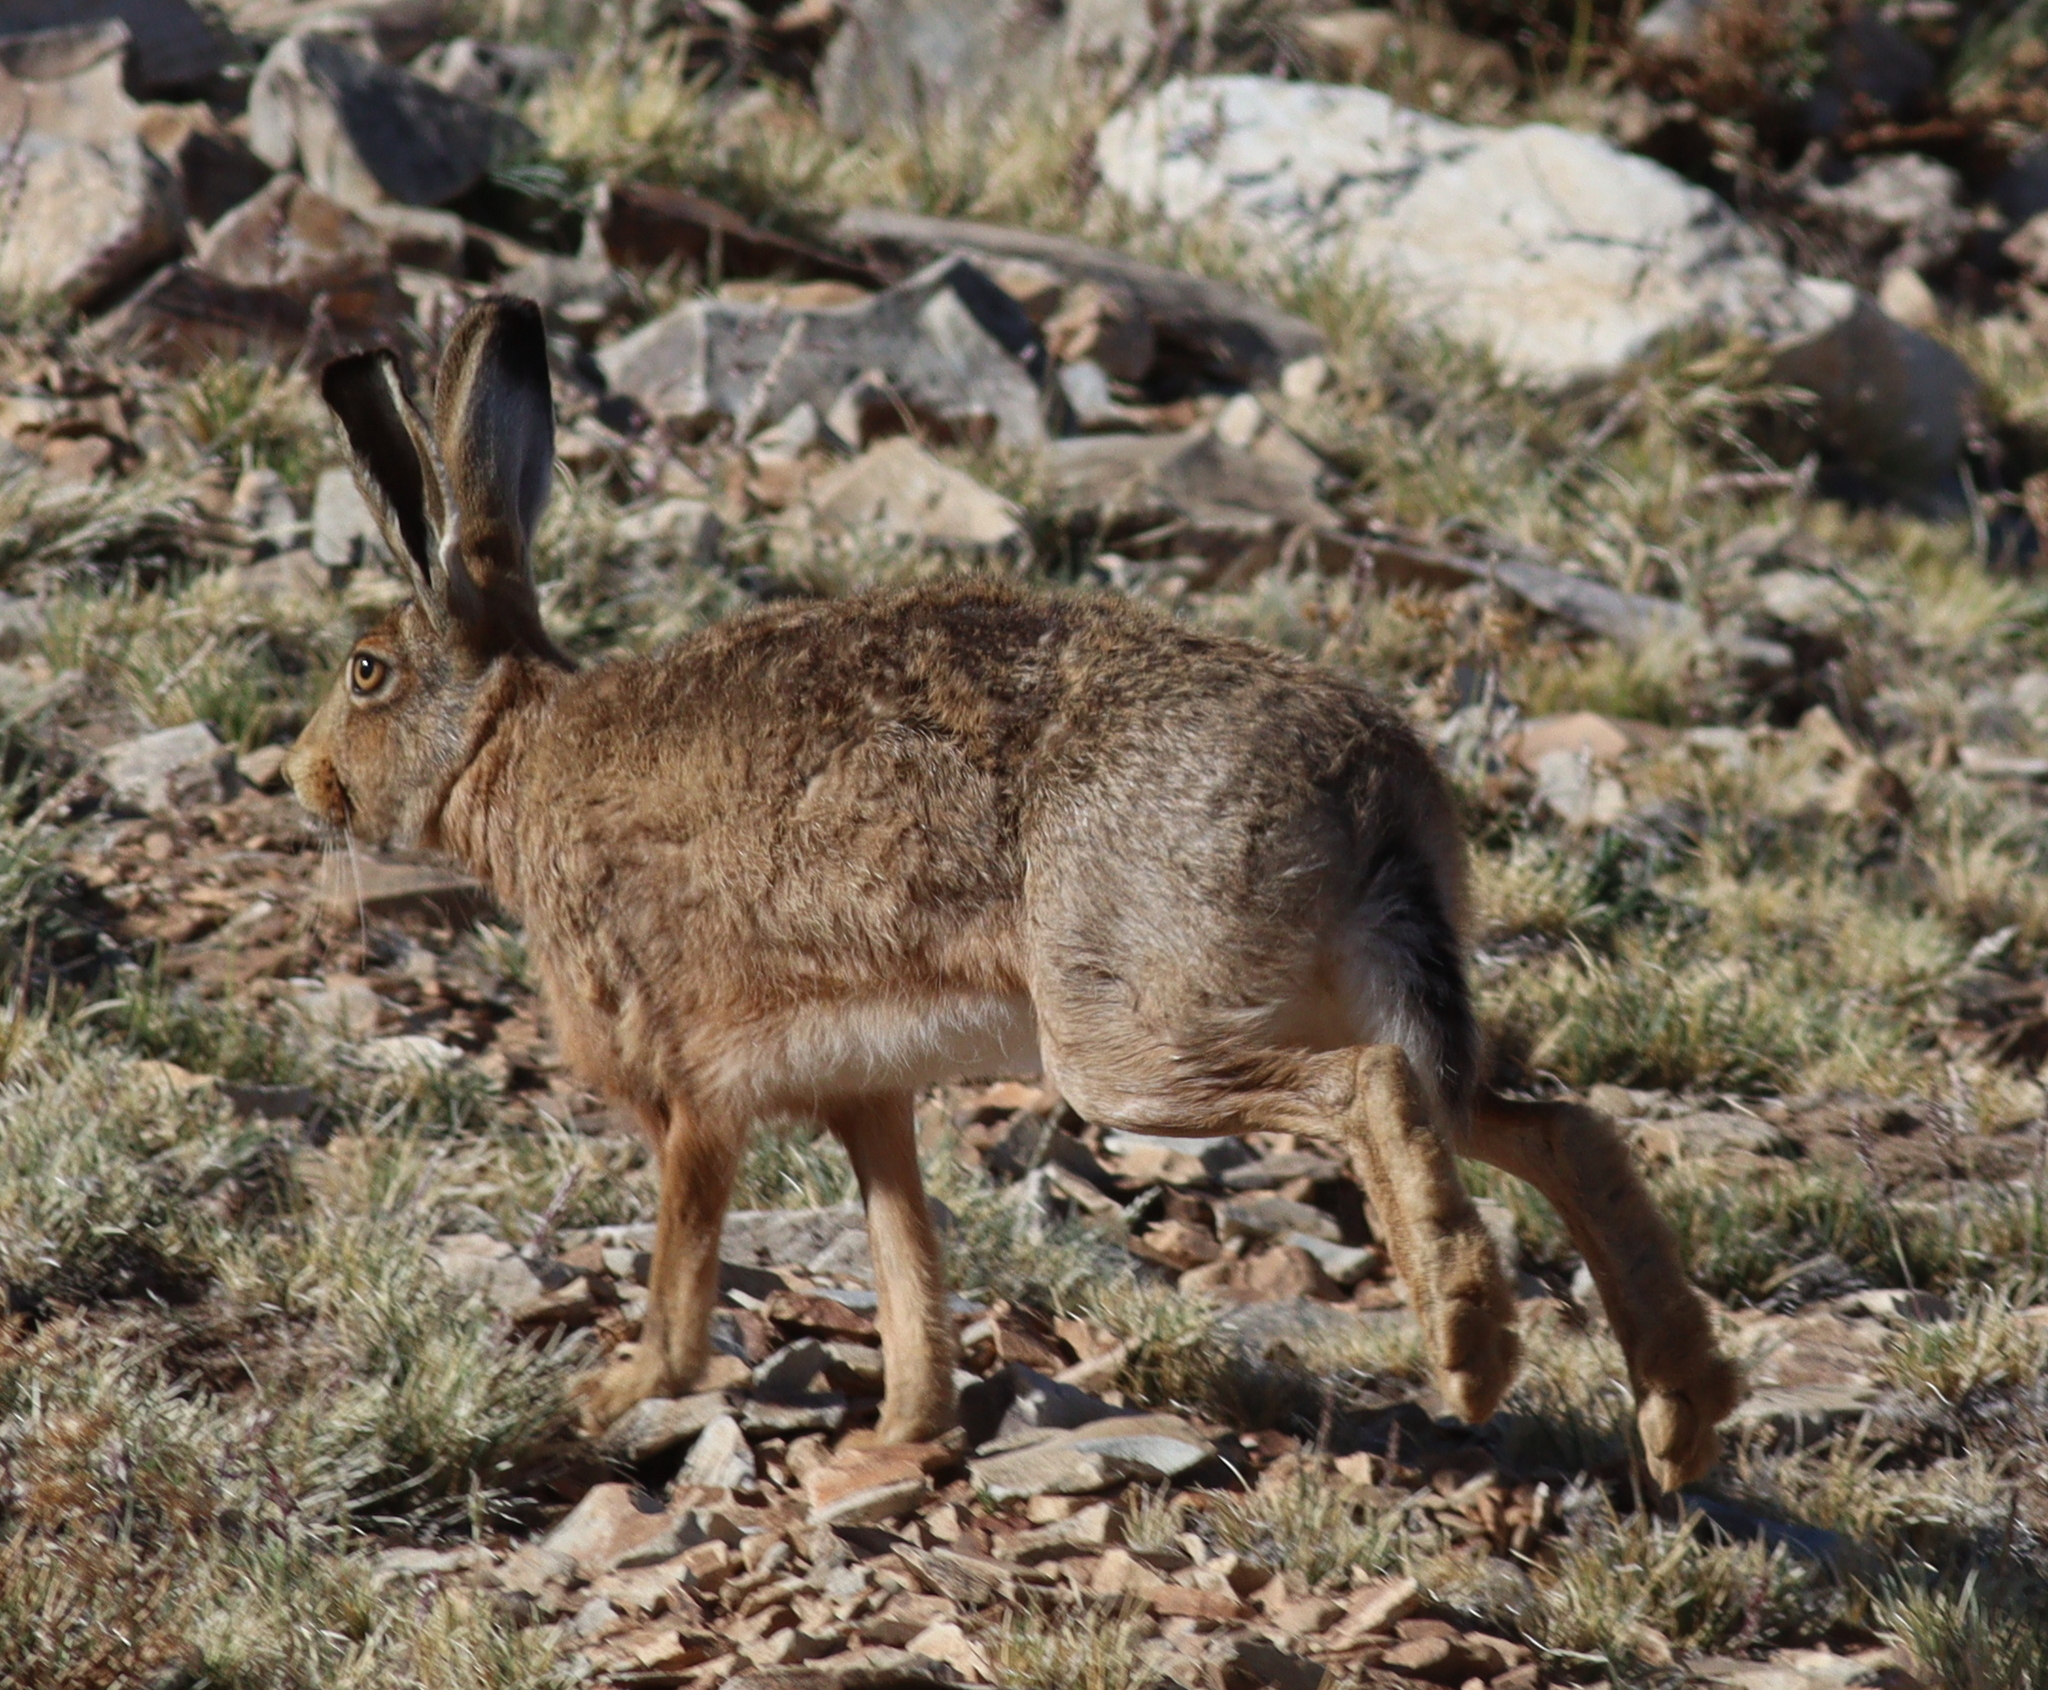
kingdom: Animalia
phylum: Chordata
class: Mammalia
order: Lagomorpha
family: Leporidae
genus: Lepus
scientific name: Lepus europaeus
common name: European hare
